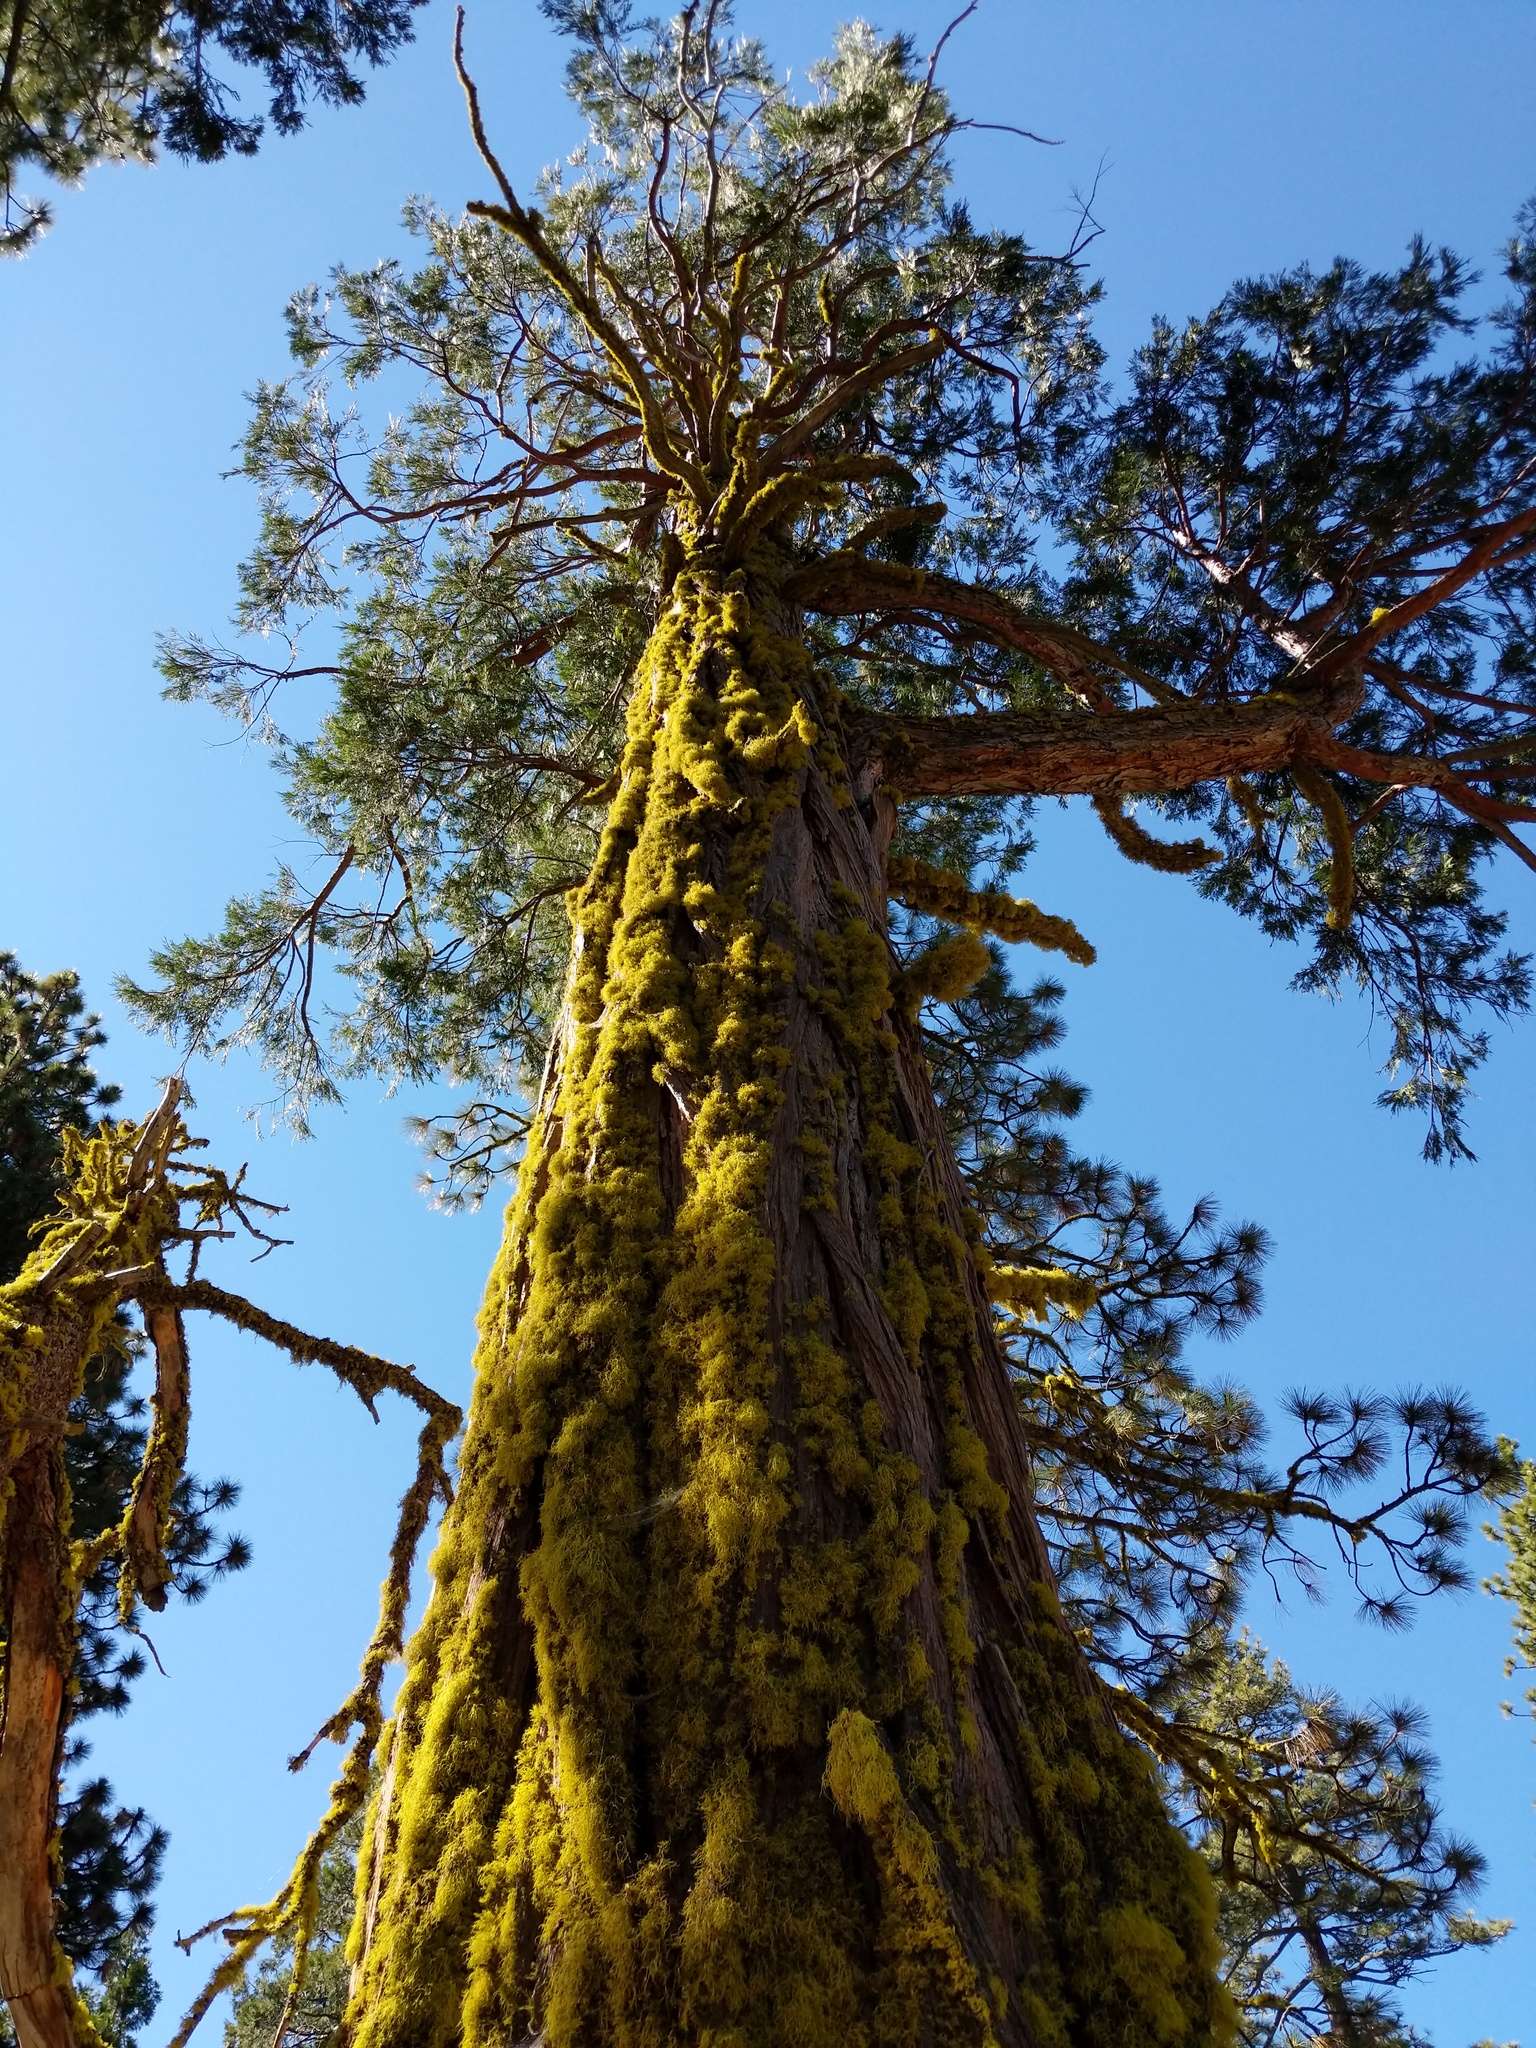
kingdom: Plantae
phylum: Tracheophyta
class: Pinopsida
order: Pinales
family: Cupressaceae
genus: Calocedrus
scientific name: Calocedrus decurrens
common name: Californian incense-cedar
